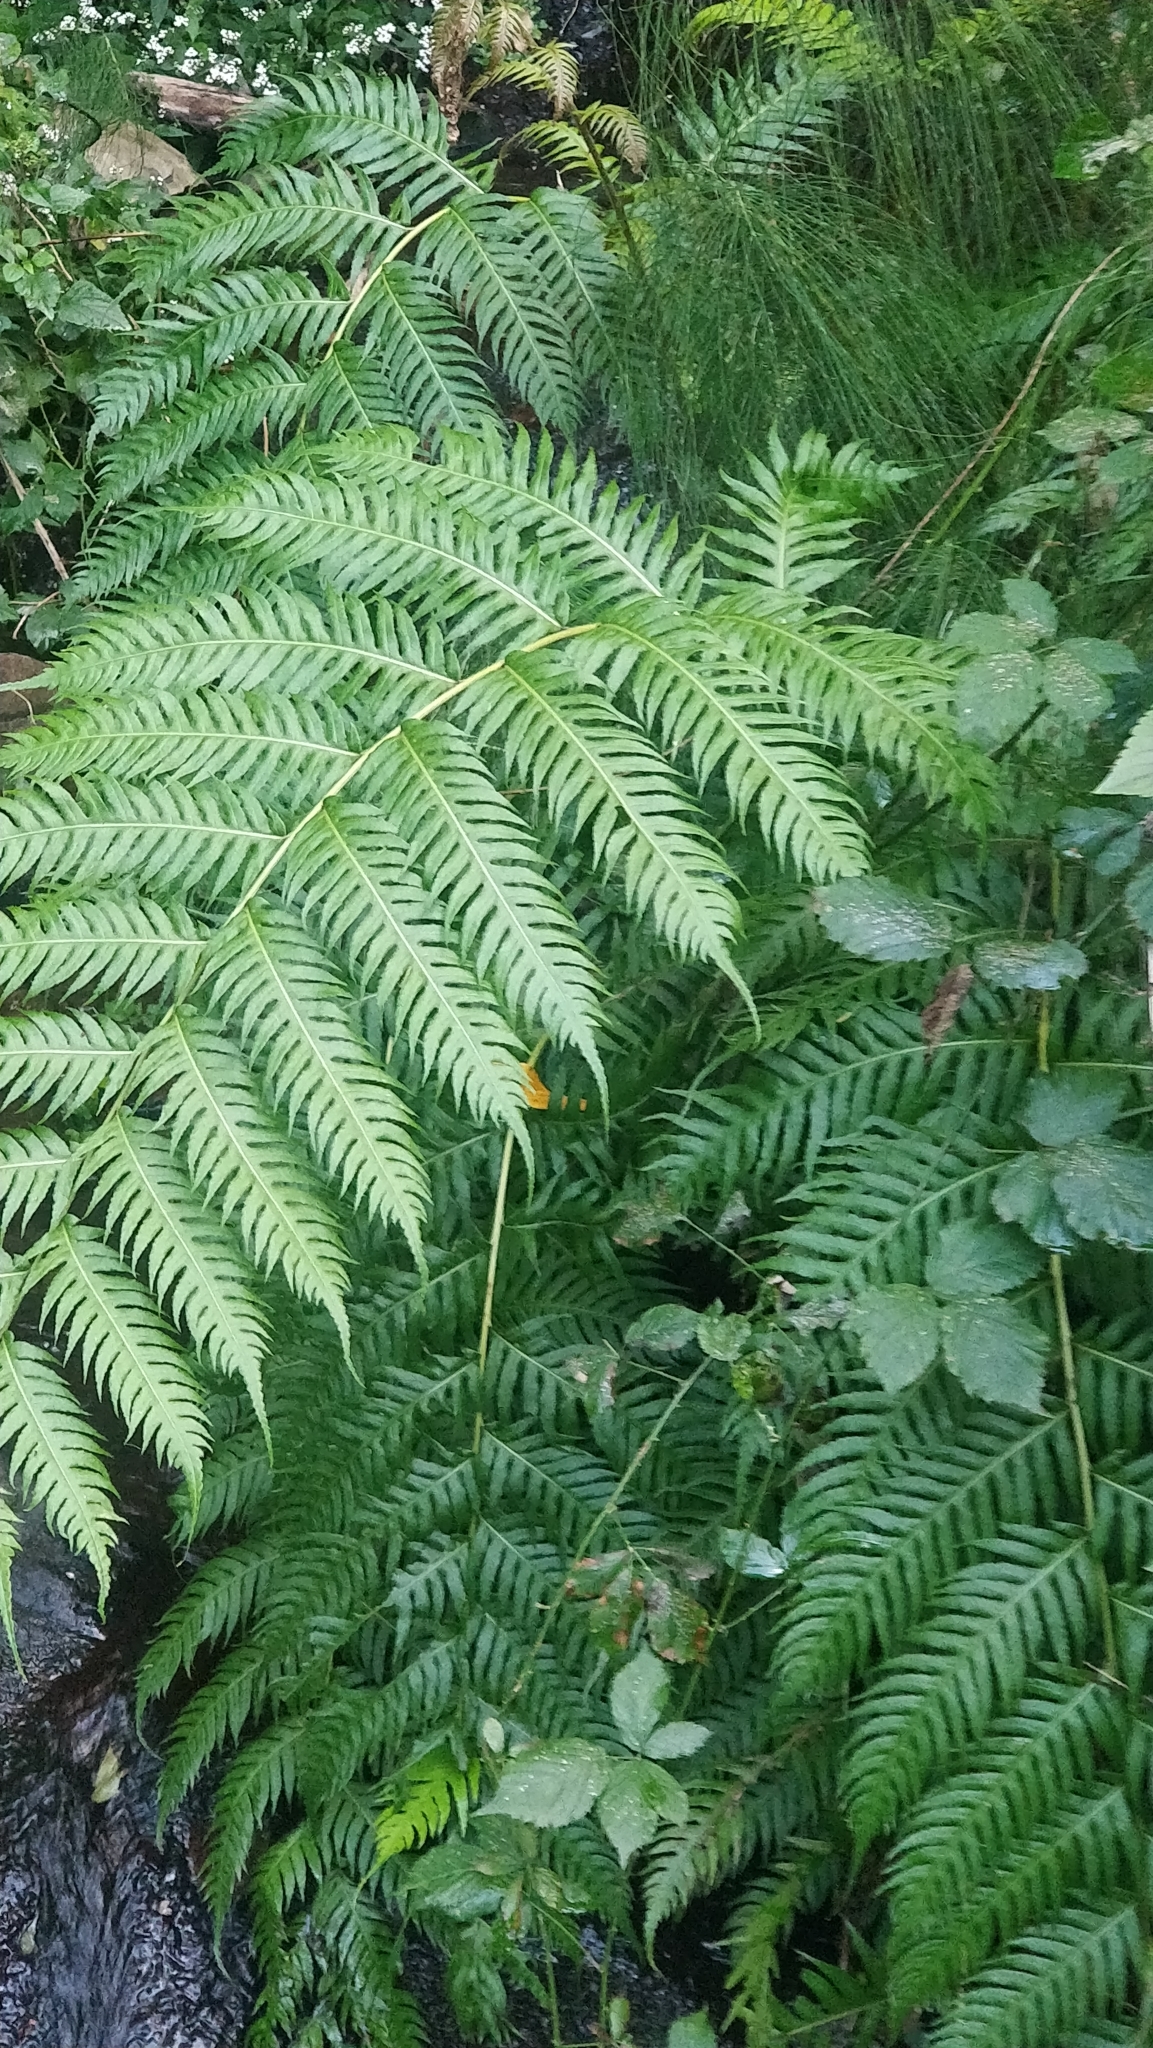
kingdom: Plantae
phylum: Tracheophyta
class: Polypodiopsida
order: Polypodiales
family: Blechnaceae
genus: Woodwardia
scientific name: Woodwardia radicans
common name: Rooting chainfern
